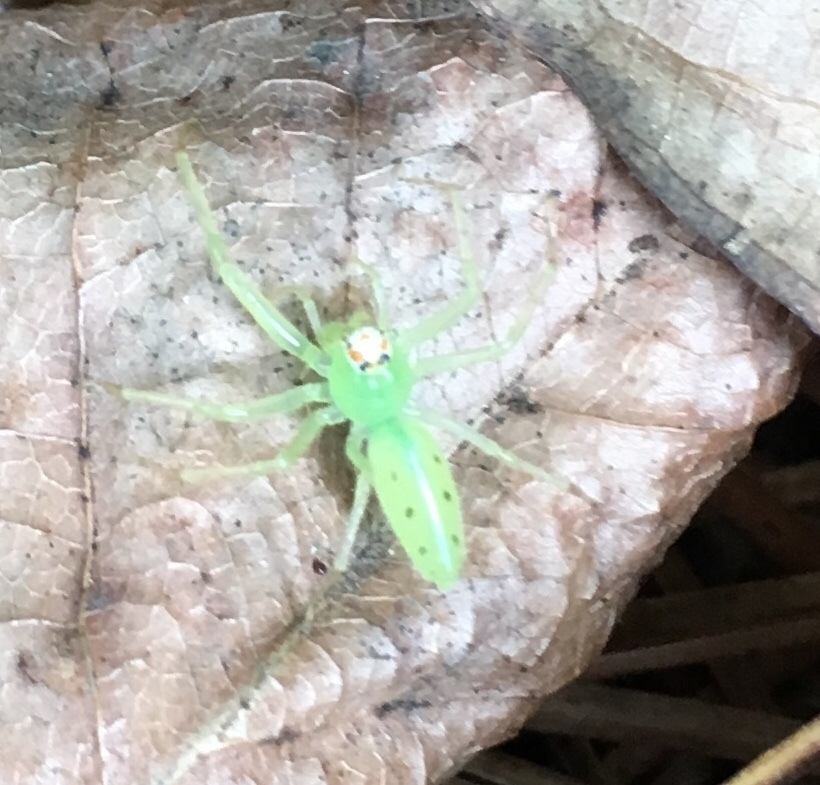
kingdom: Animalia
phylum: Arthropoda
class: Arachnida
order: Araneae
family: Salticidae
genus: Lyssomanes
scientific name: Lyssomanes viridis
